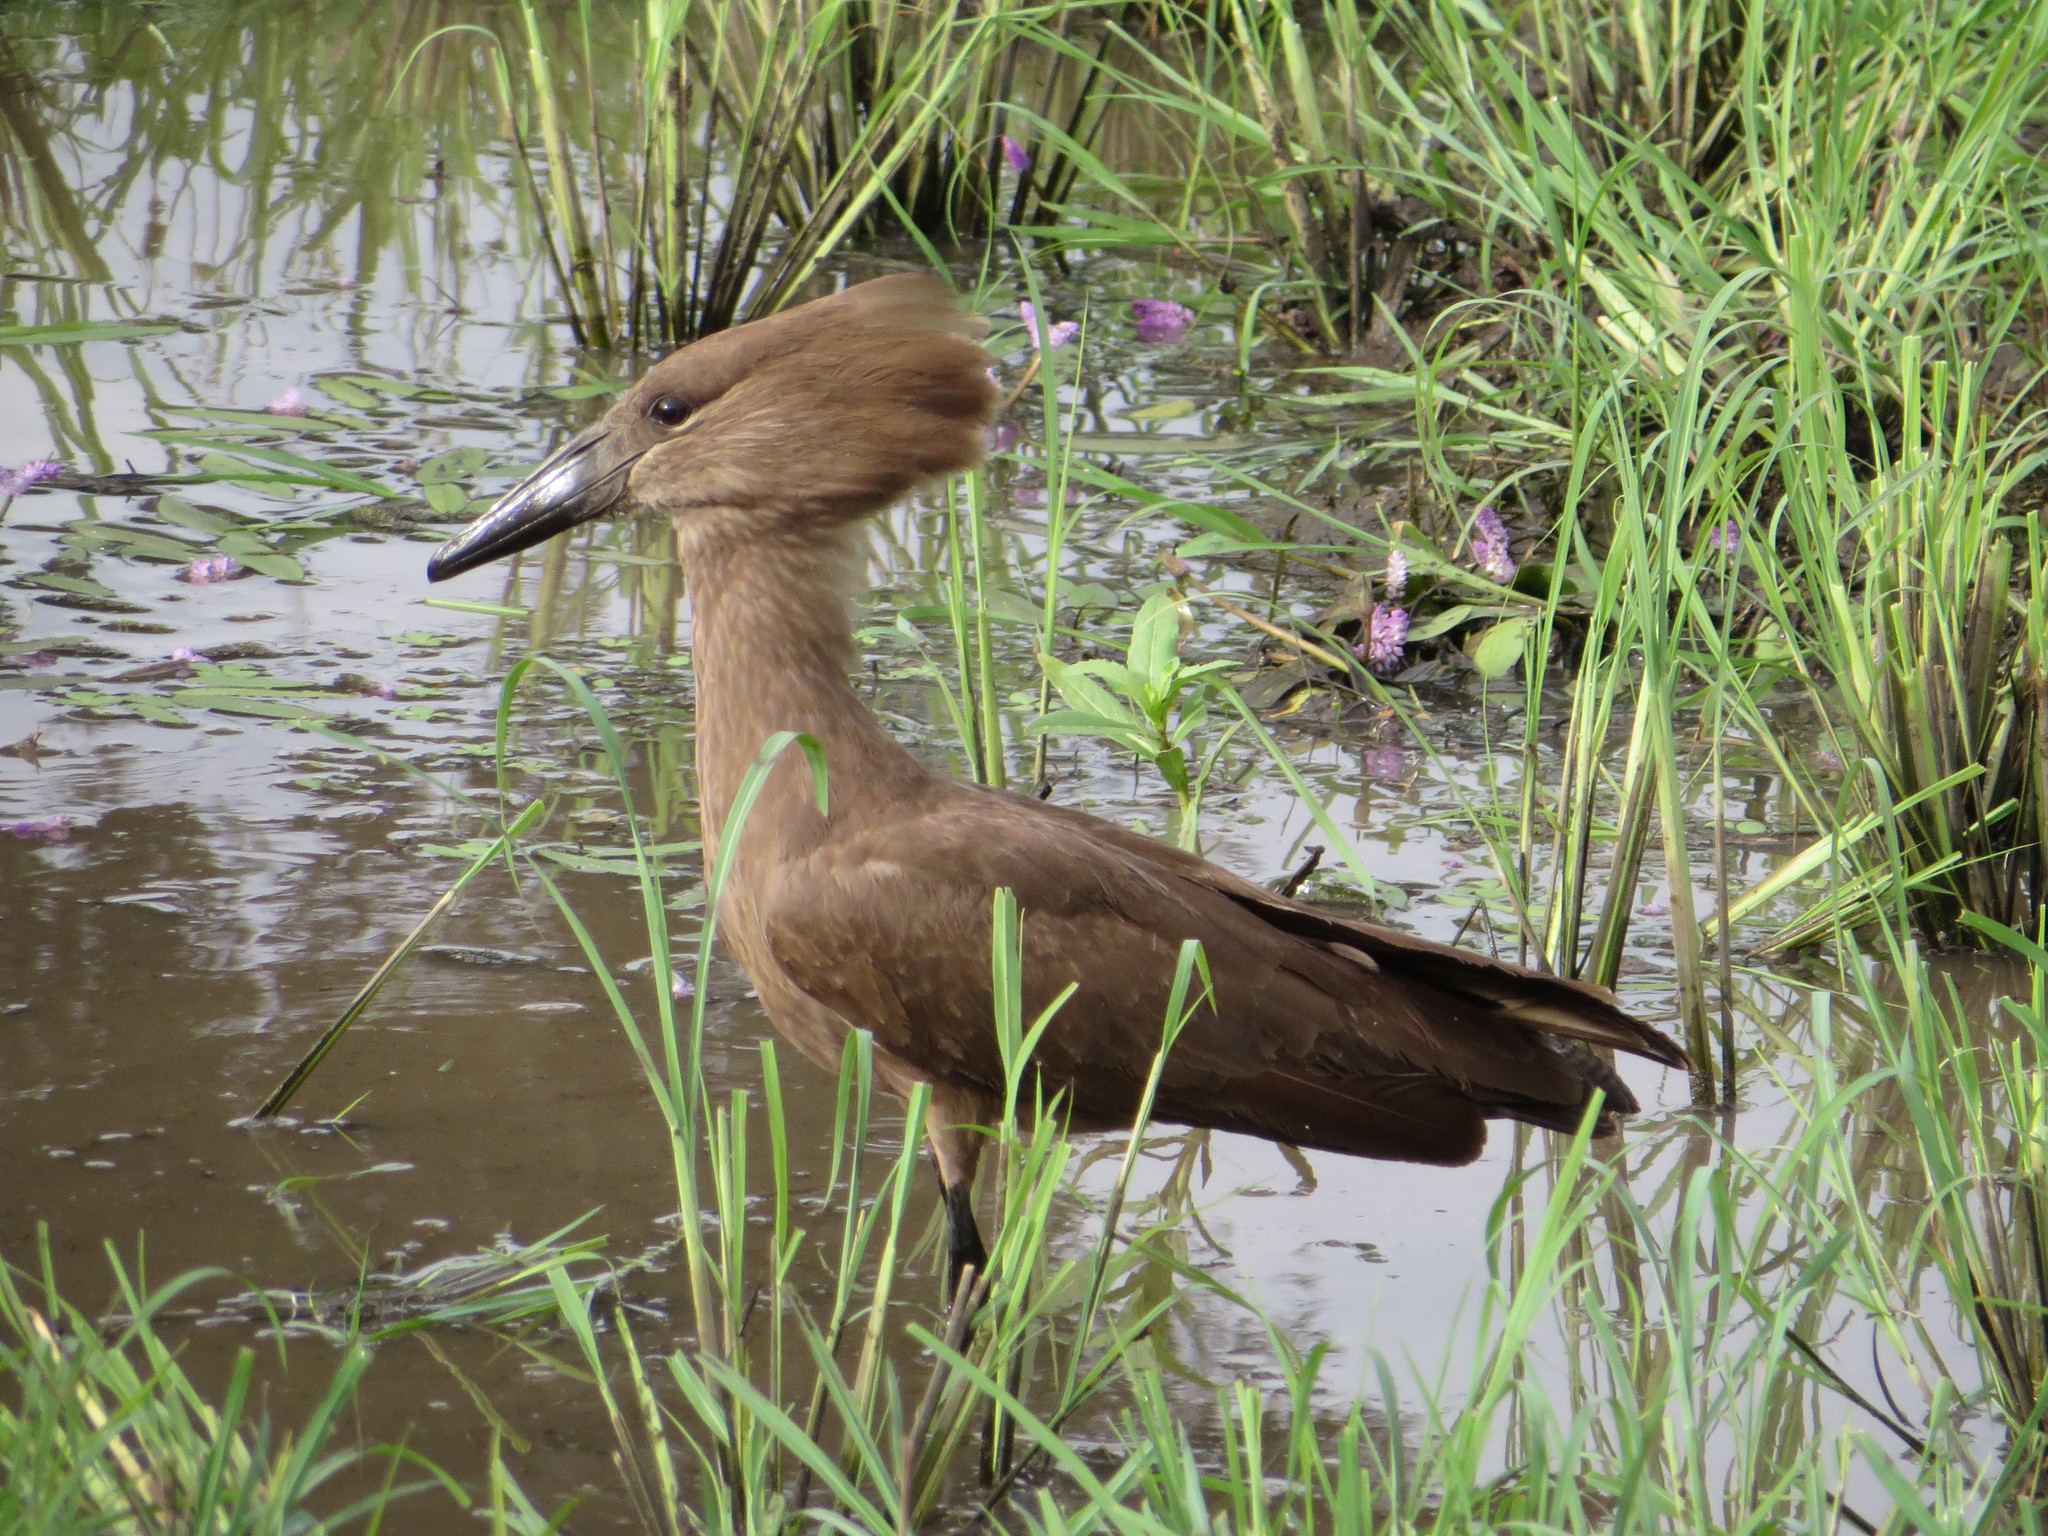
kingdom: Animalia
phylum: Chordata
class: Aves
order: Pelecaniformes
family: Scopidae
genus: Scopus
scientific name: Scopus umbretta
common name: Hamerkop
